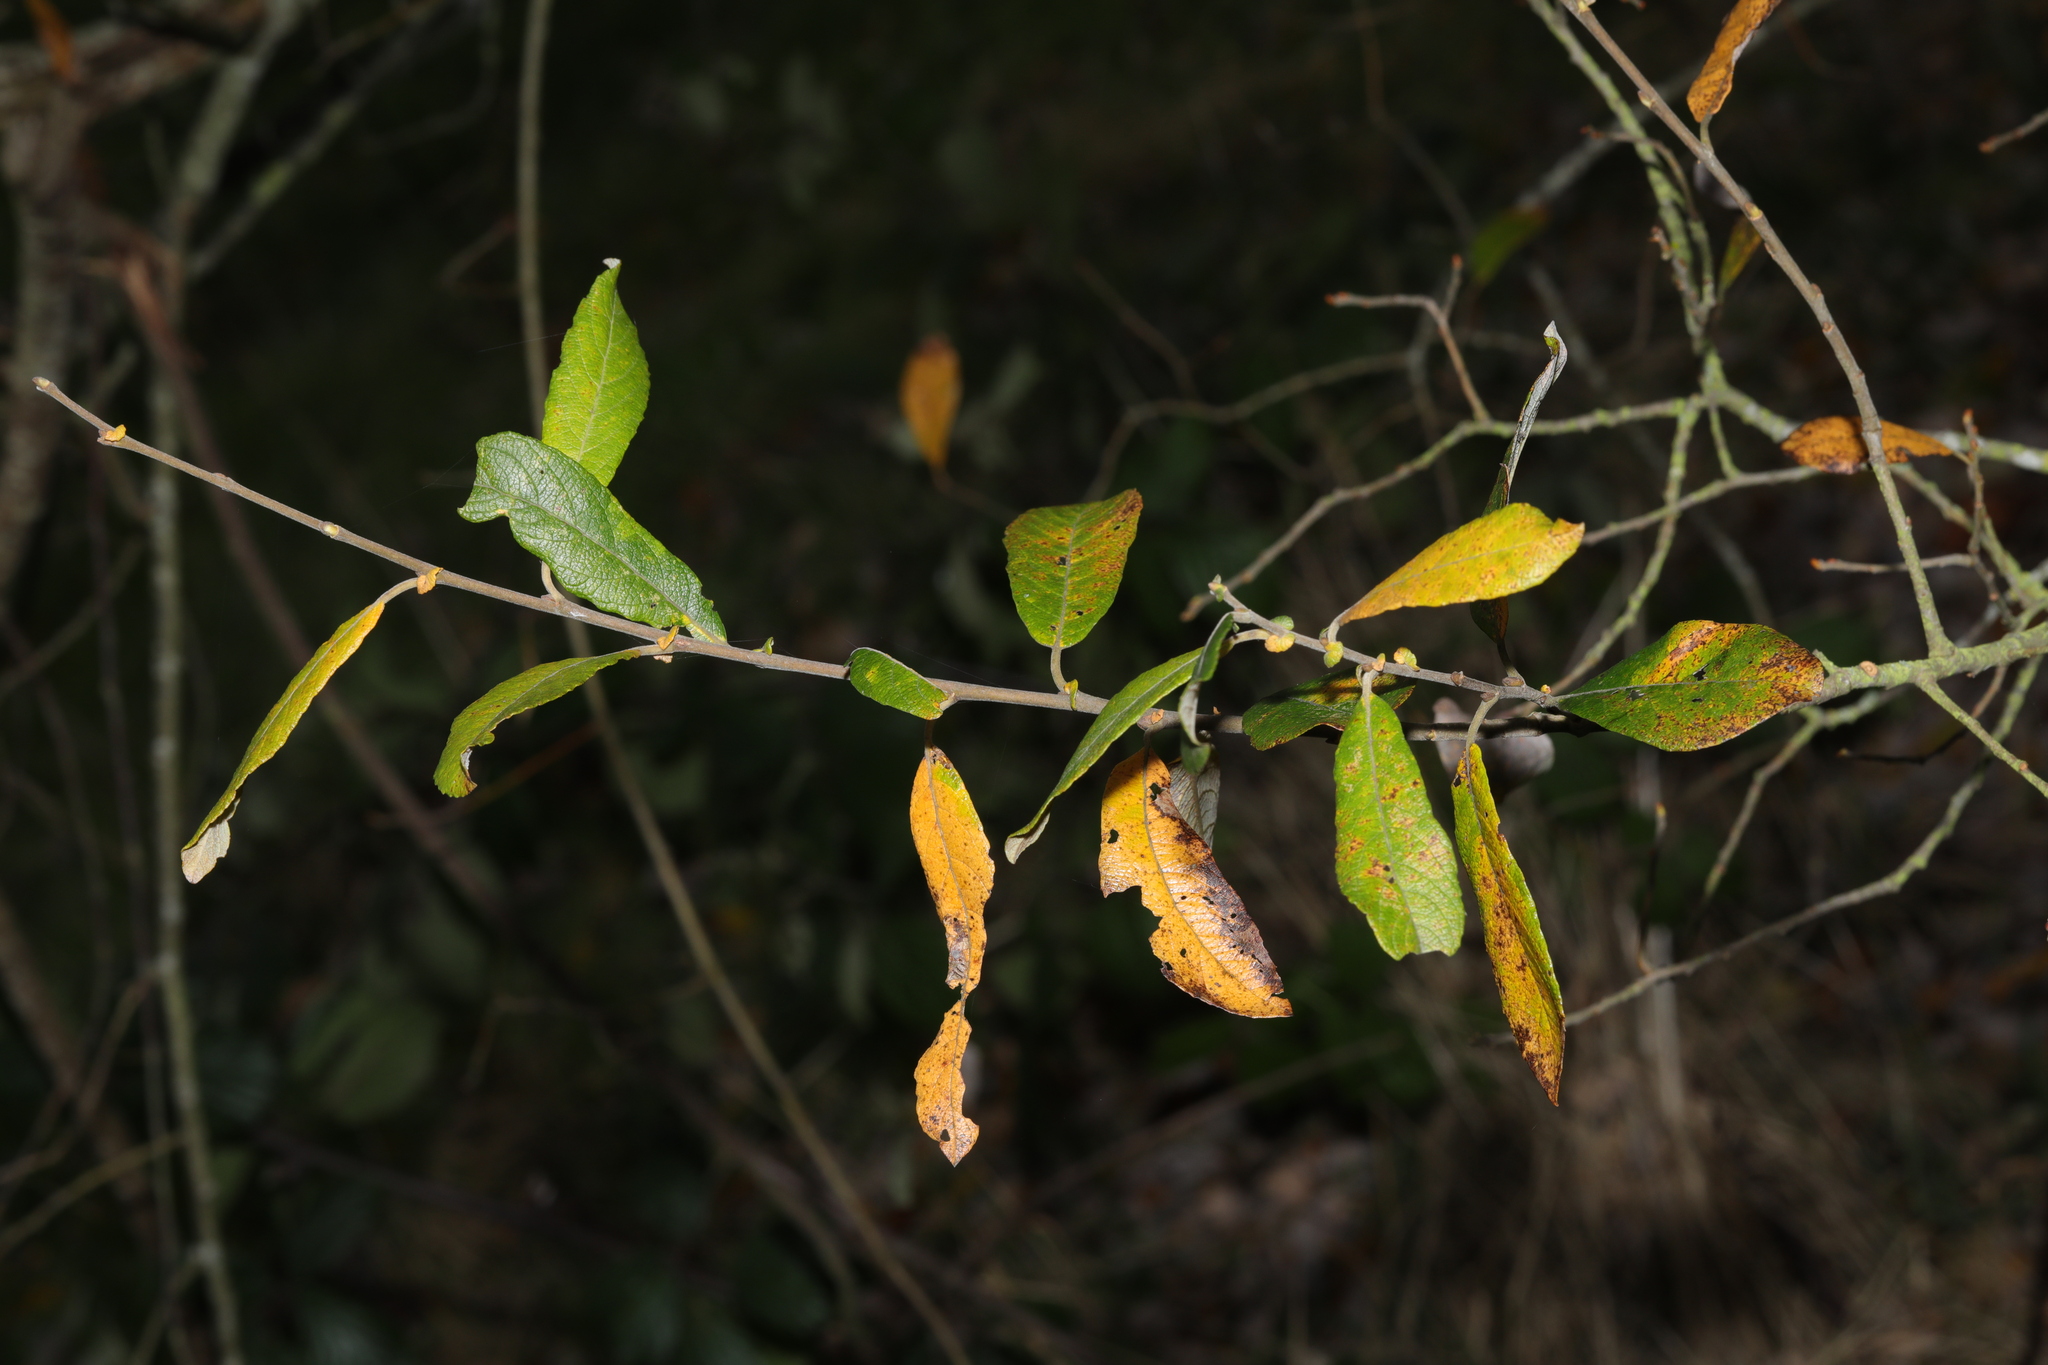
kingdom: Plantae
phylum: Tracheophyta
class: Magnoliopsida
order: Malpighiales
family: Salicaceae
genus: Salix
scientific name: Salix atrocinerea
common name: Rusty willow
